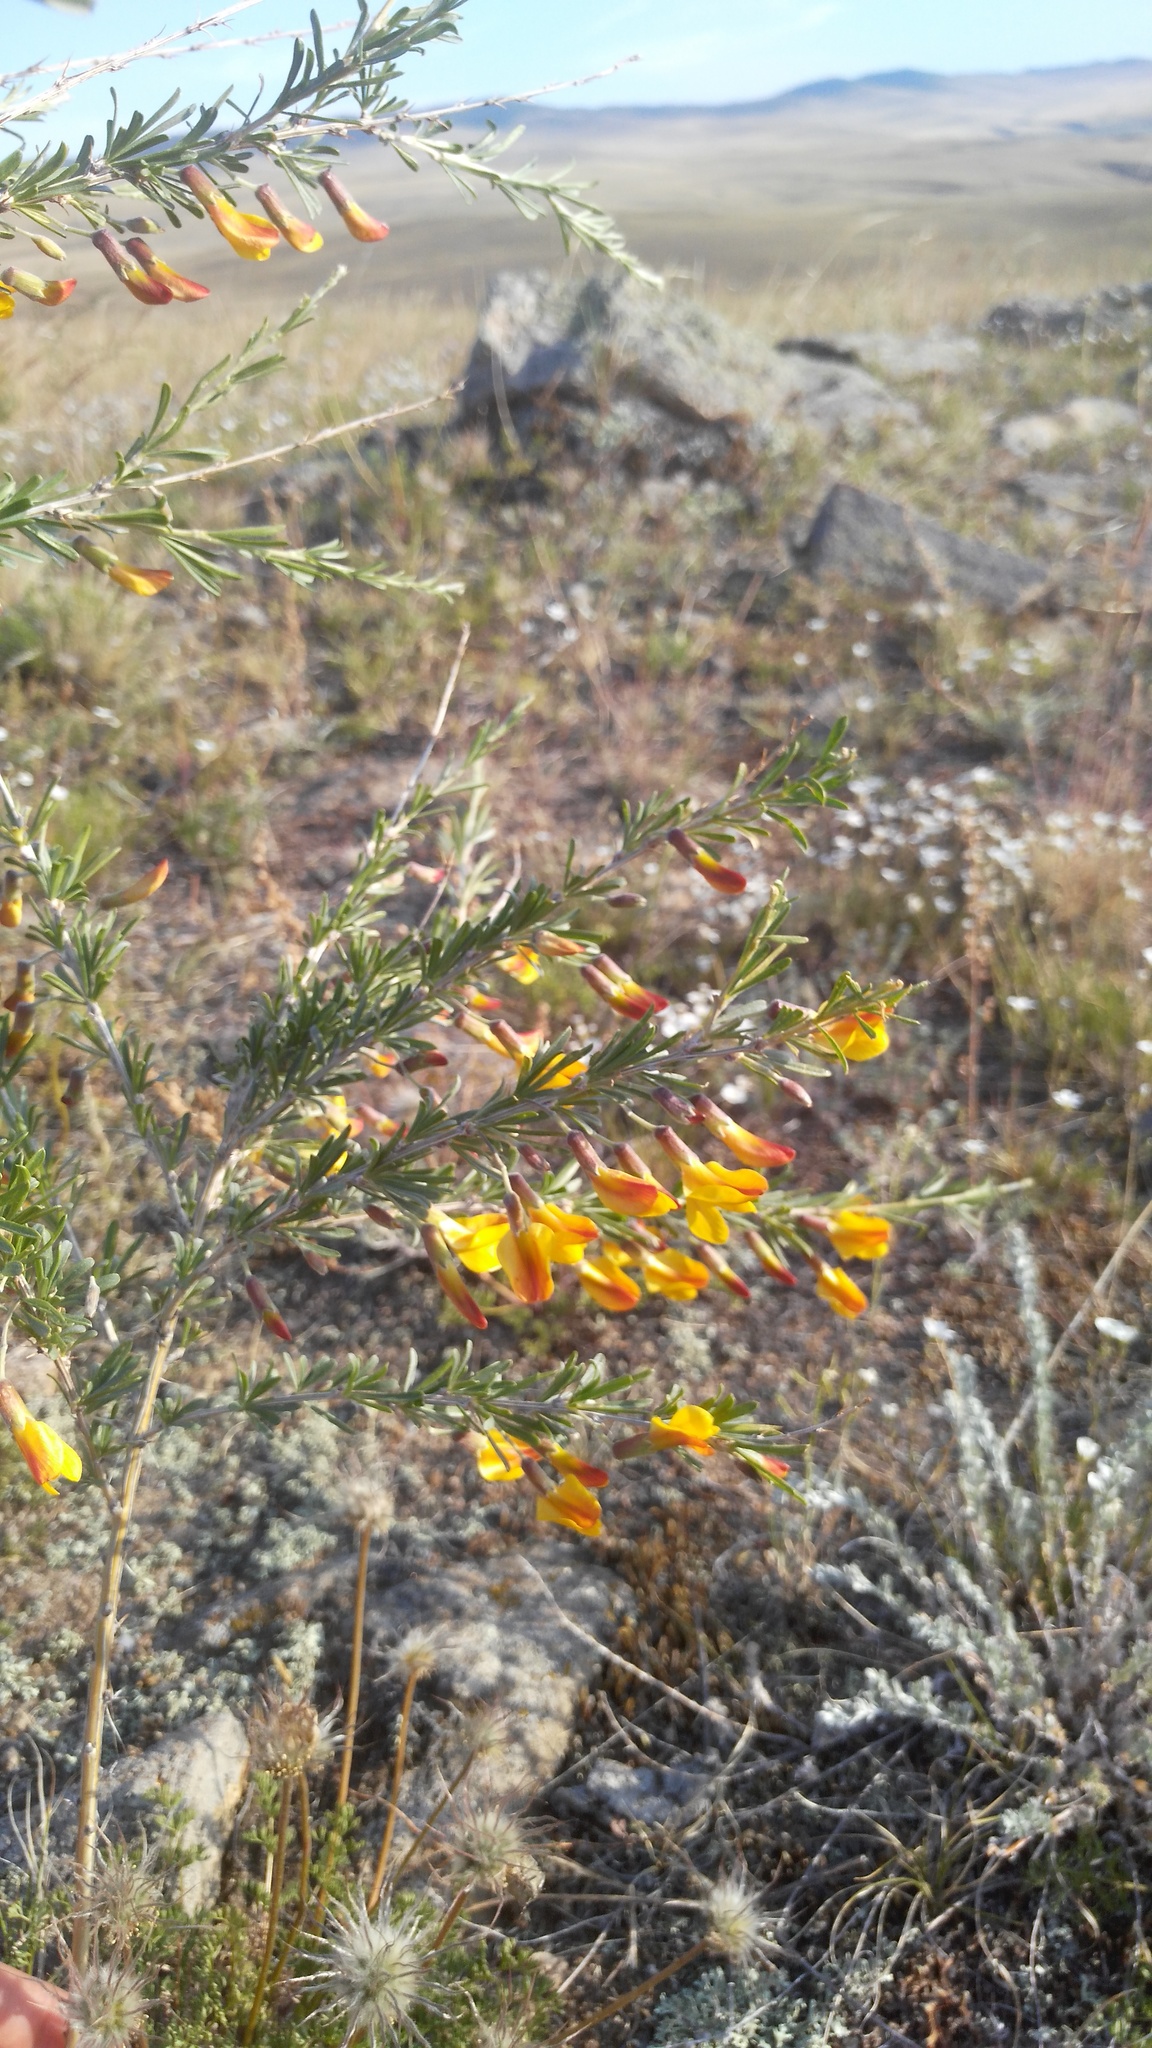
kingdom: Plantae
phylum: Tracheophyta
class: Magnoliopsida
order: Fabales
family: Fabaceae
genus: Caragana
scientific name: Caragana pygmaea
